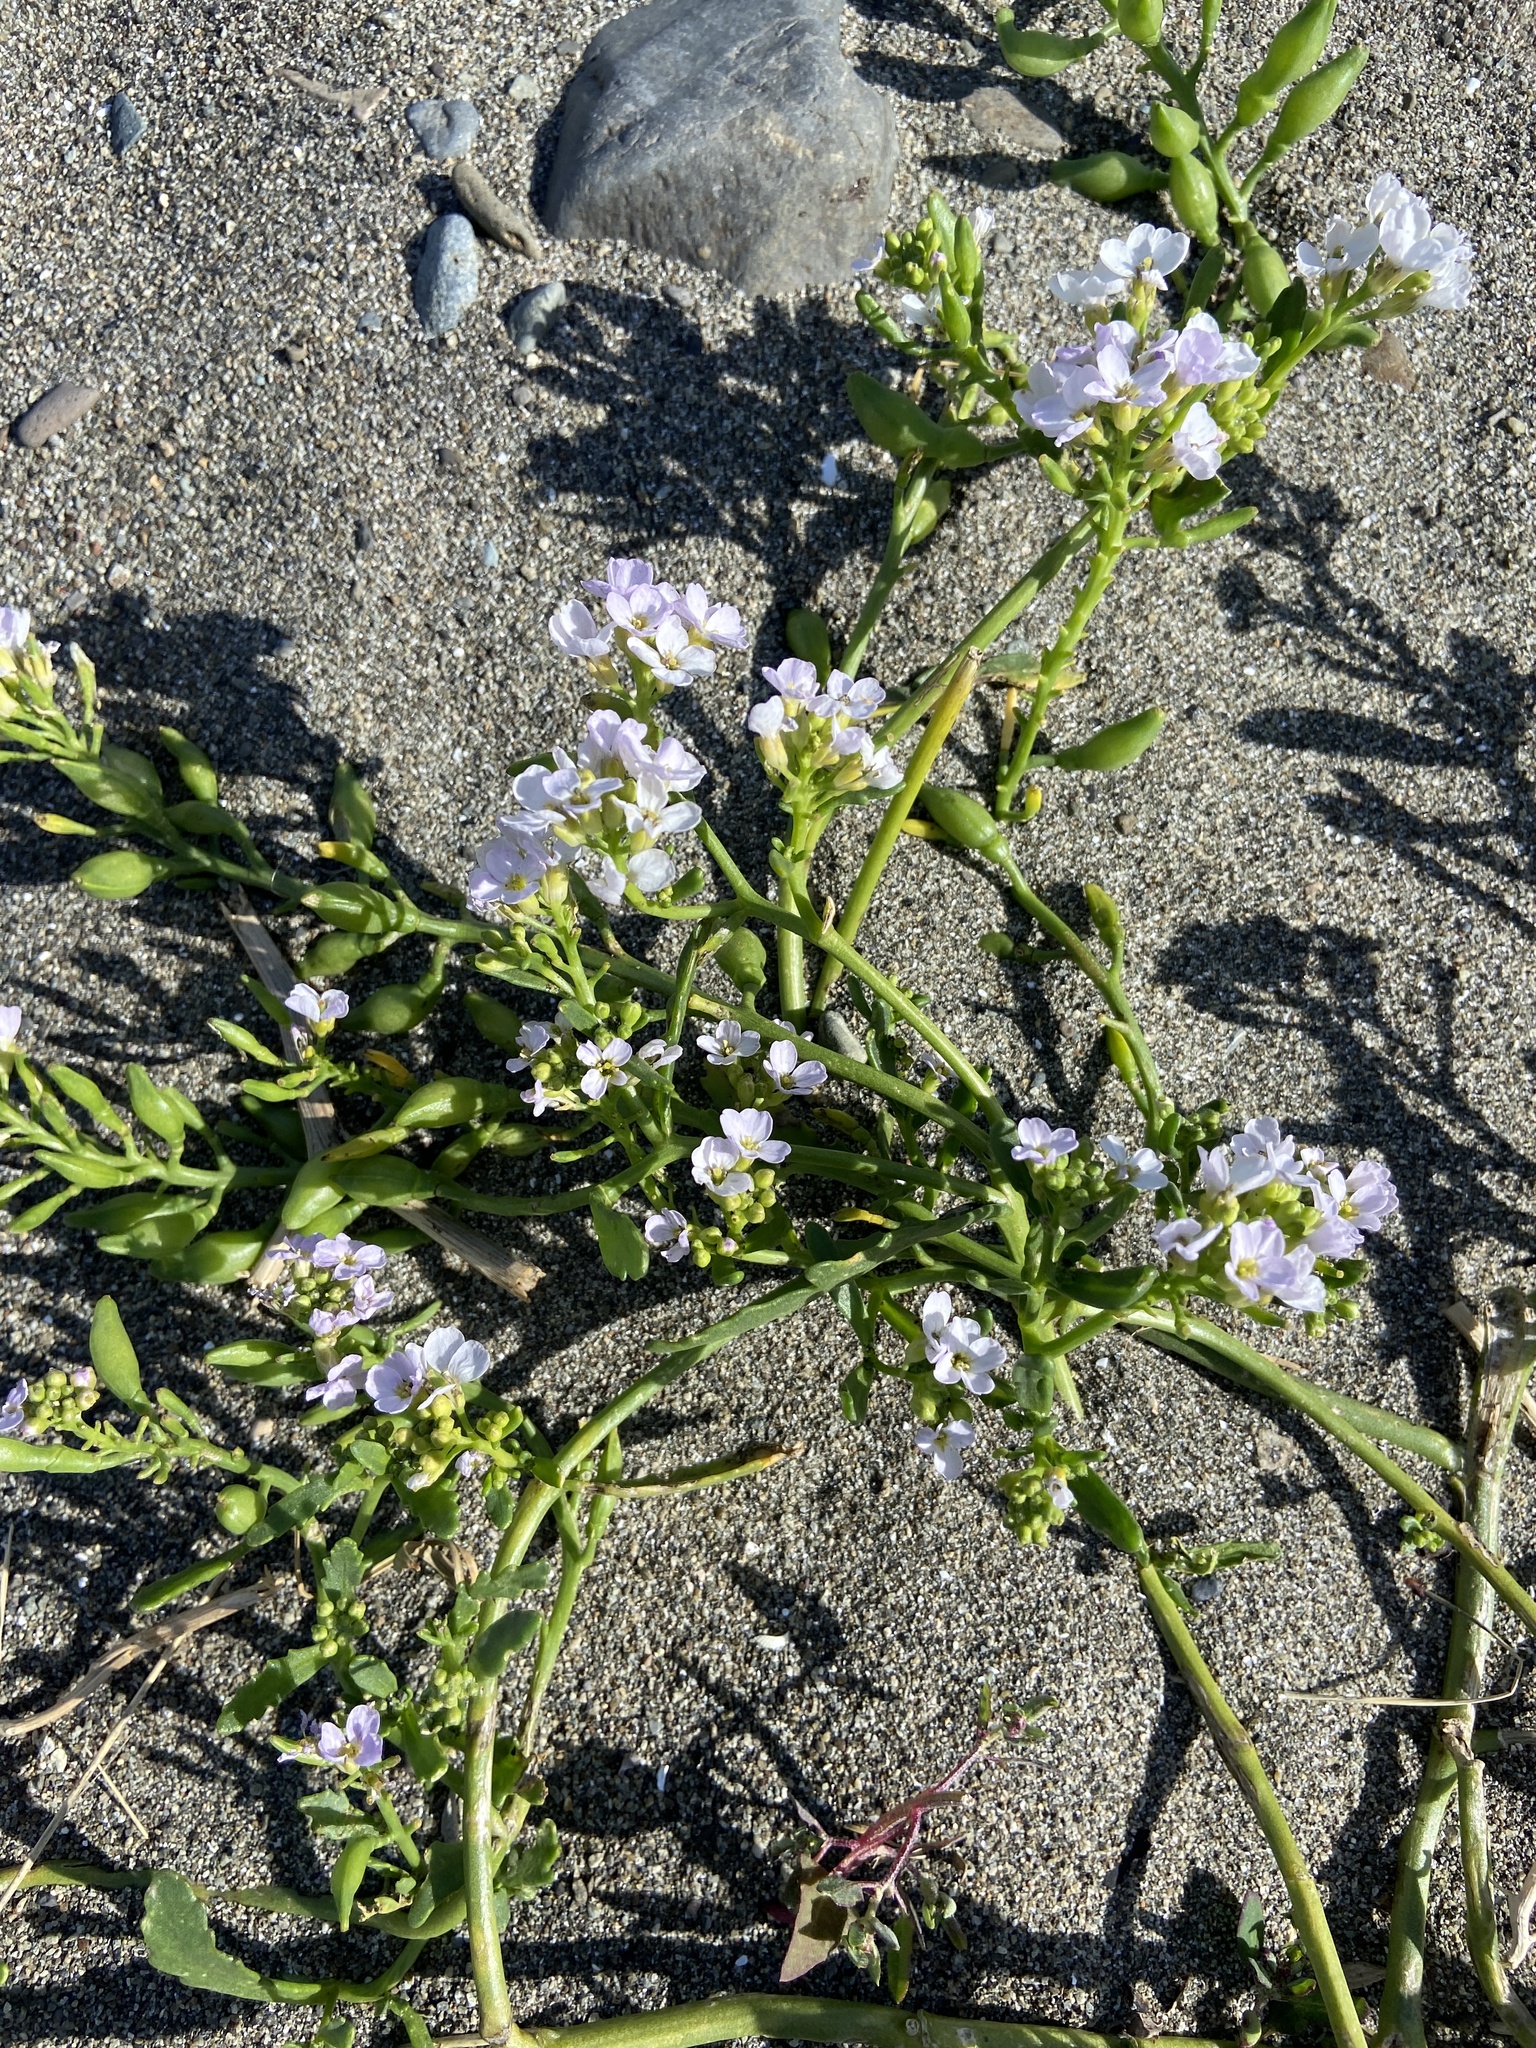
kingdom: Plantae
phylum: Tracheophyta
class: Magnoliopsida
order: Brassicales
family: Brassicaceae
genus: Cakile
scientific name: Cakile maritima
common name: Sea rocket
